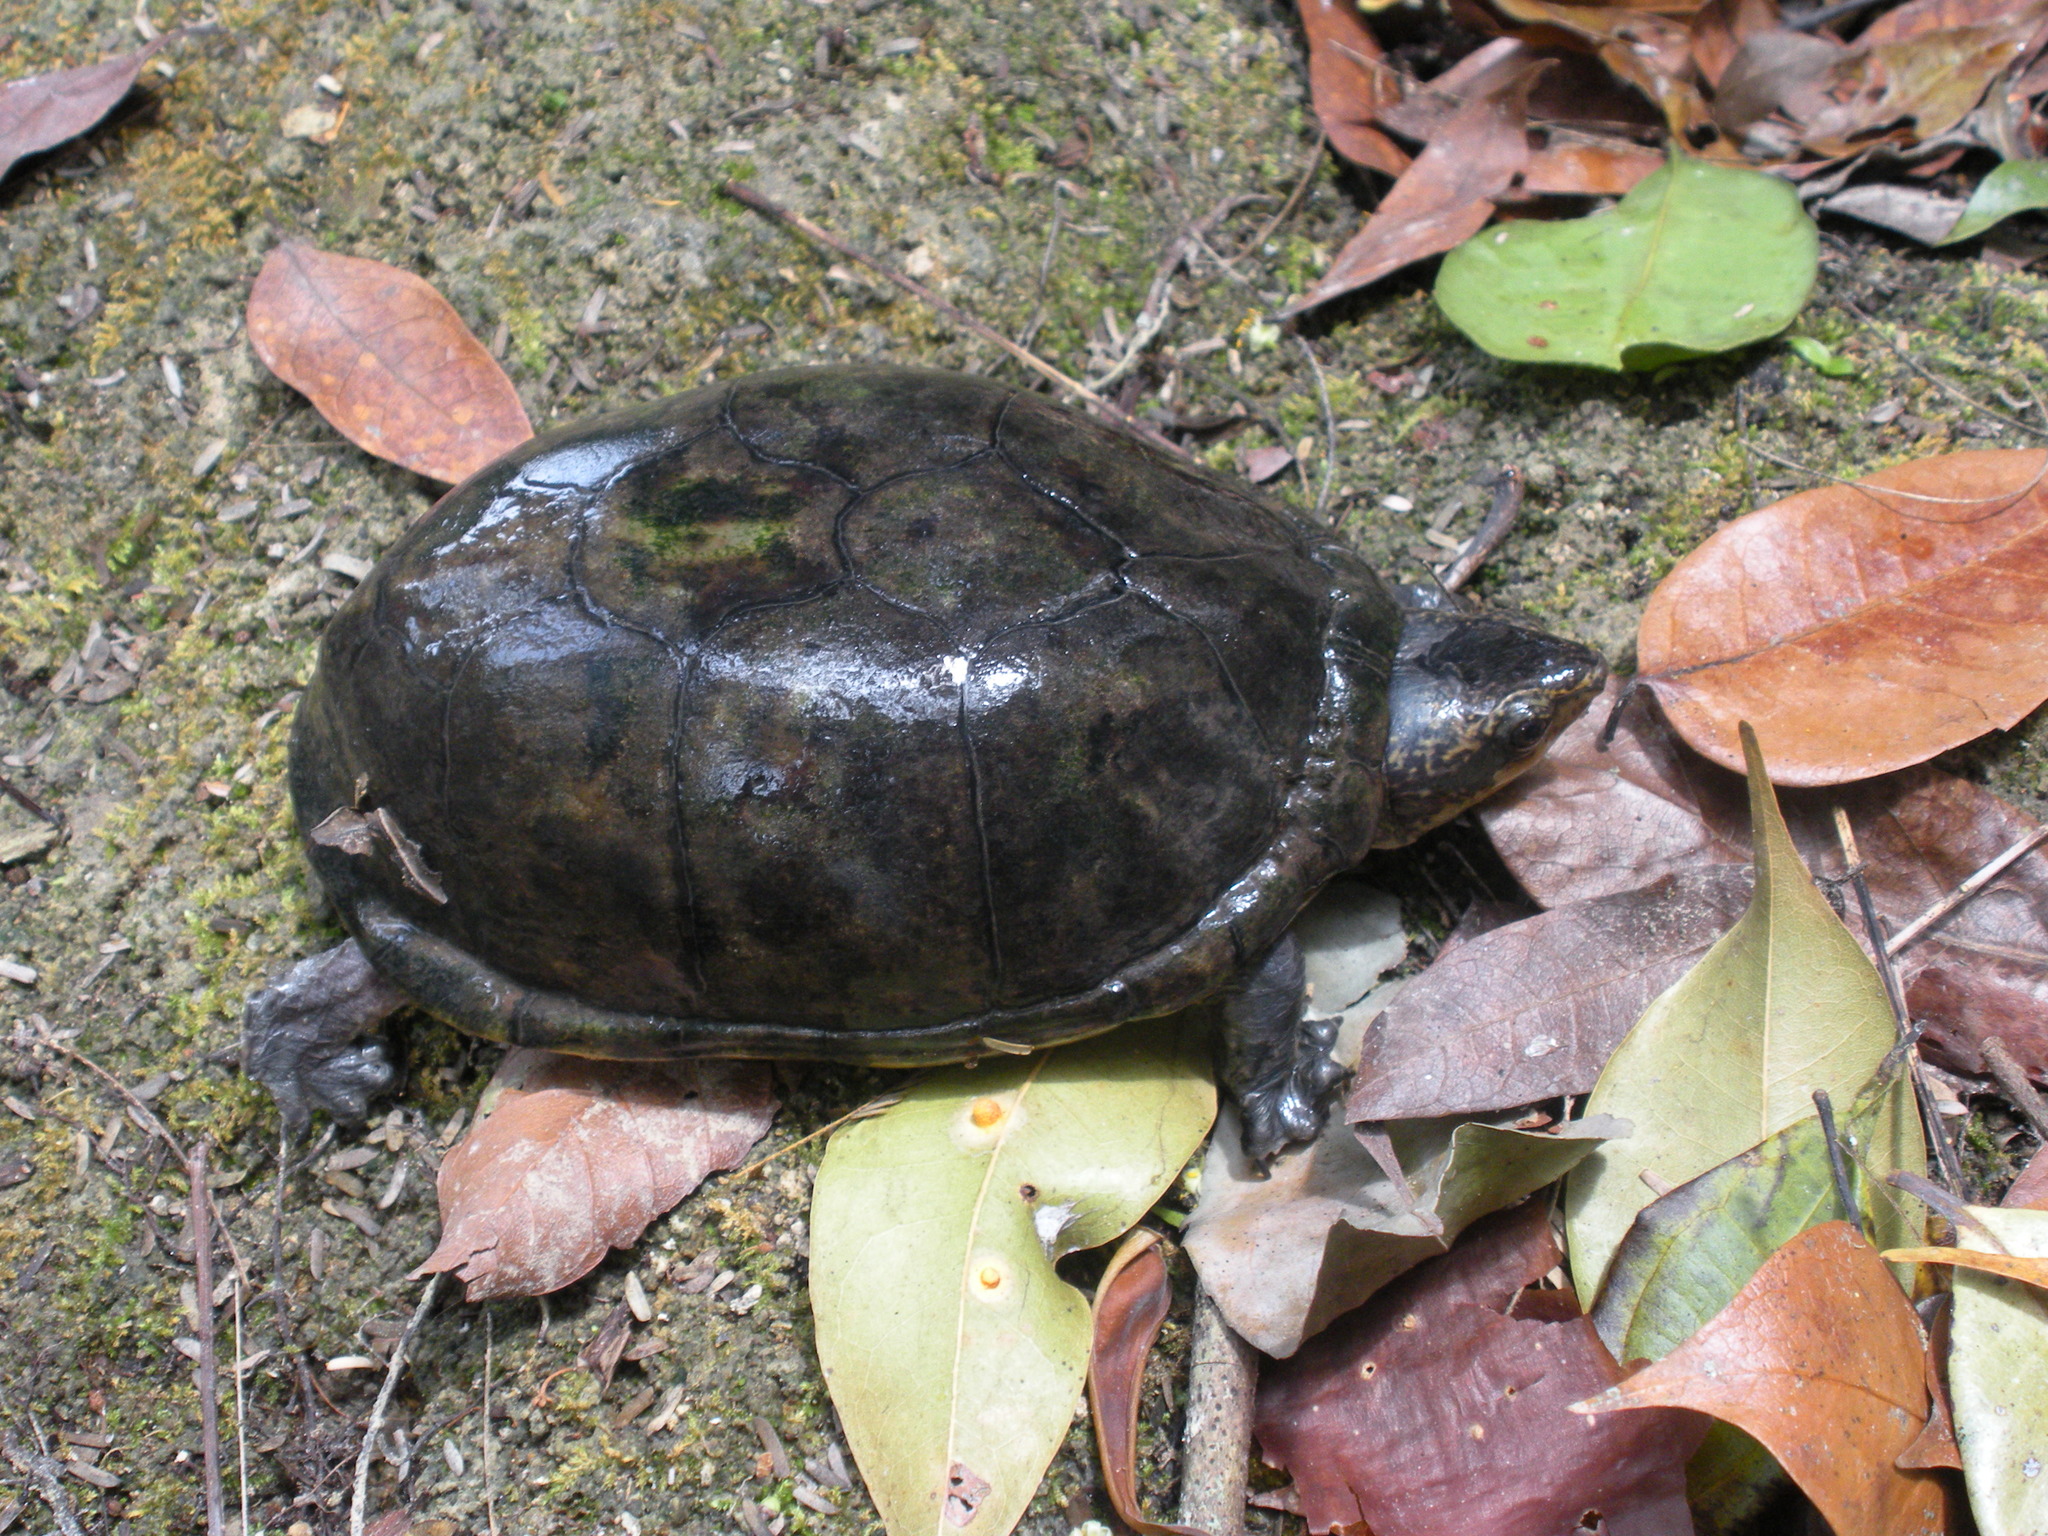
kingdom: Animalia
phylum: Chordata
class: Testudines
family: Kinosternidae
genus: Kinosternon
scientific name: Kinosternon leucostomum
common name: White-lipped mud turtle
